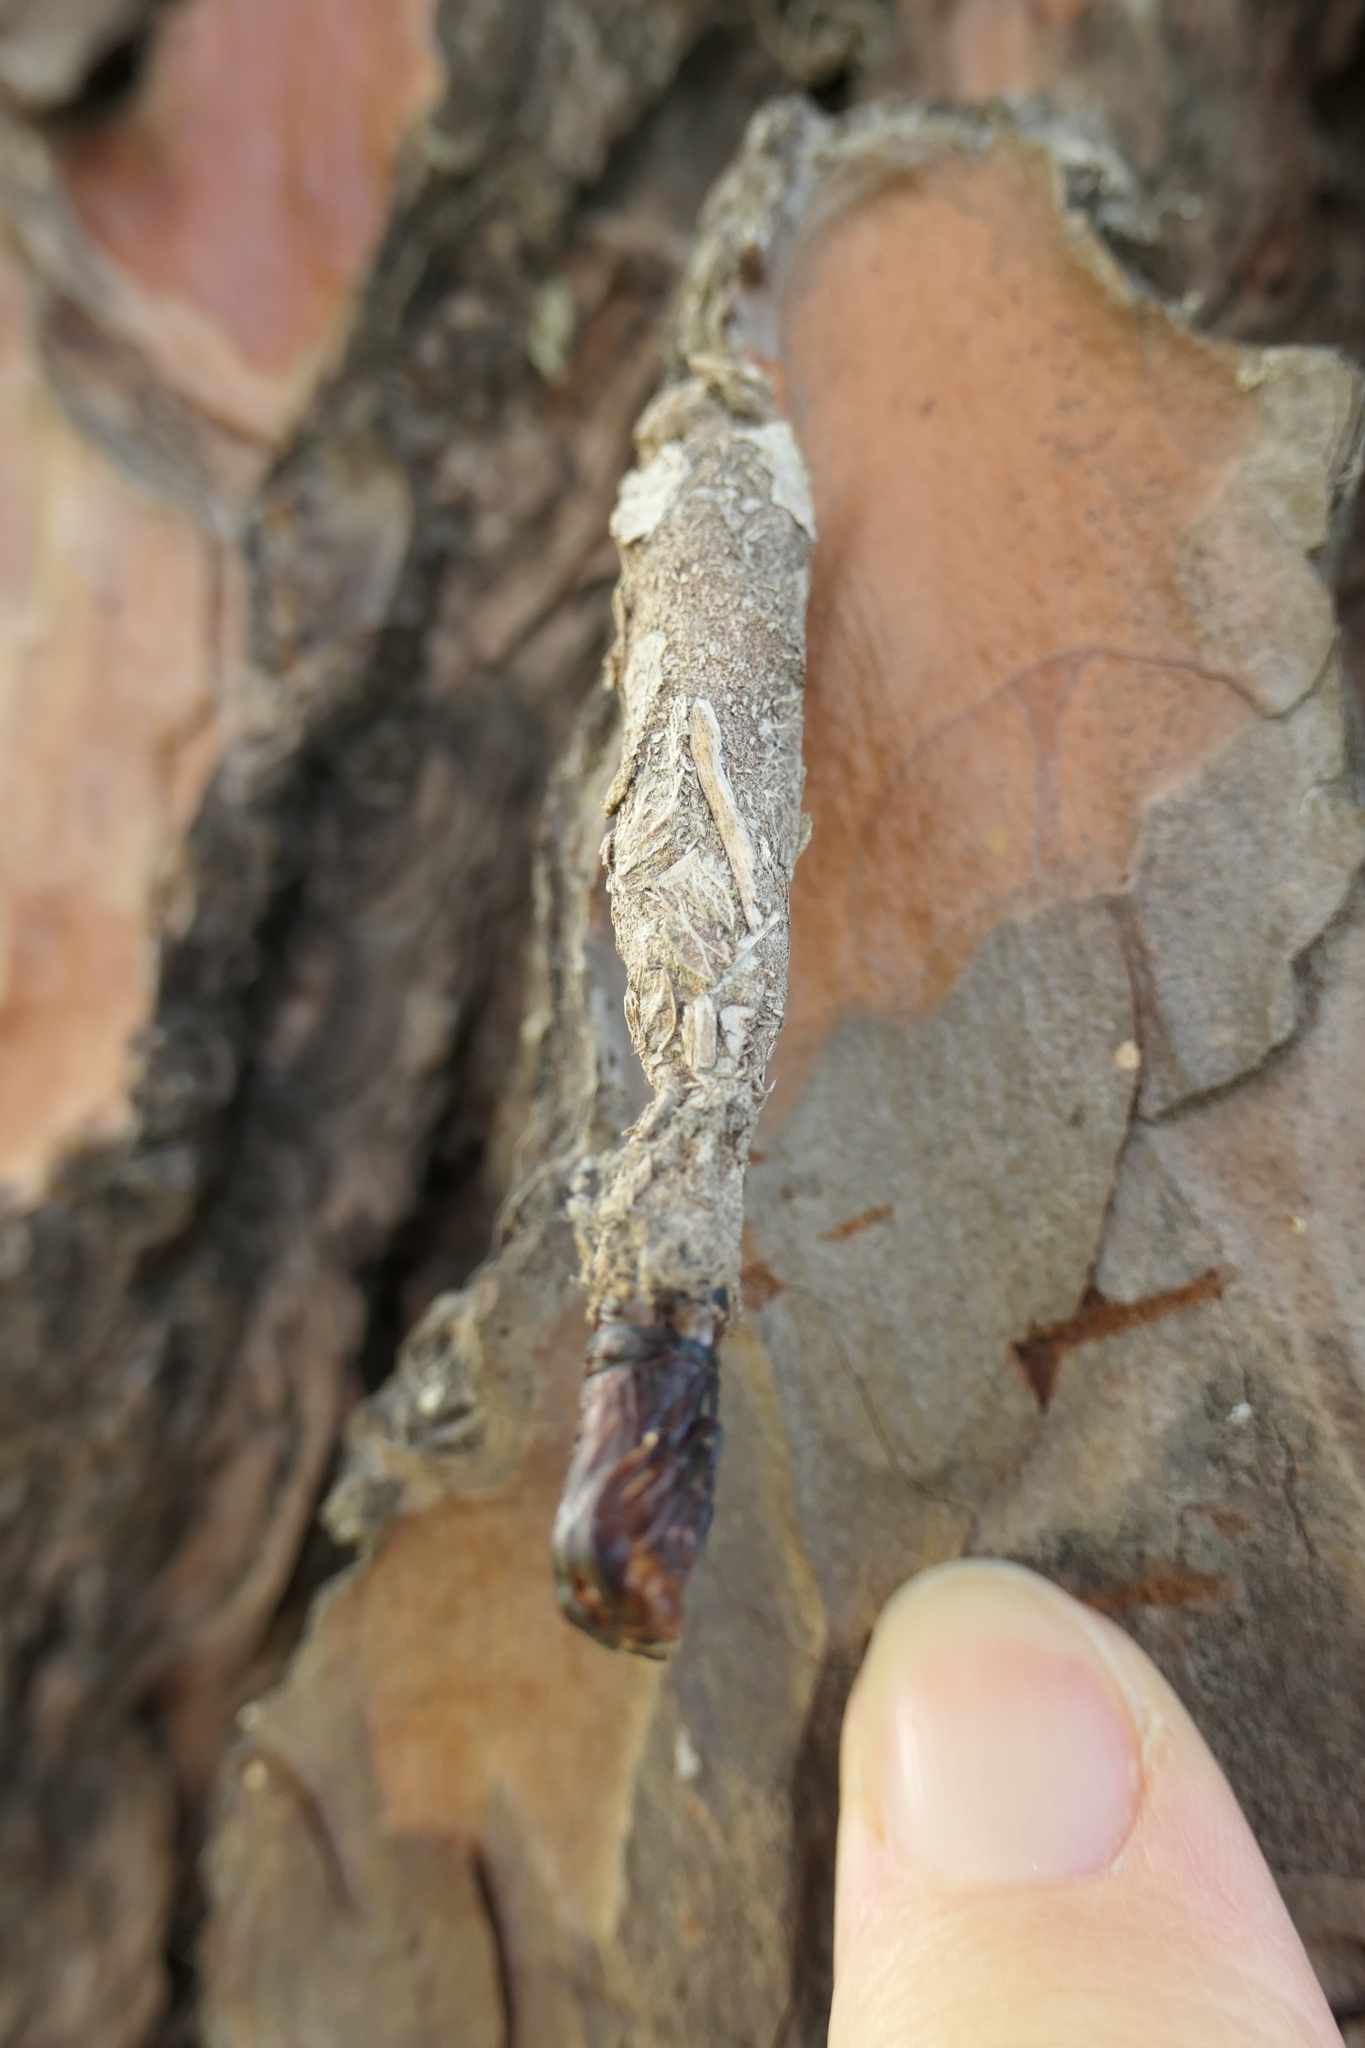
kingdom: Animalia
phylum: Arthropoda
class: Insecta
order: Lepidoptera
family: Psychidae
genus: Liothula
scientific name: Liothula omnivora
